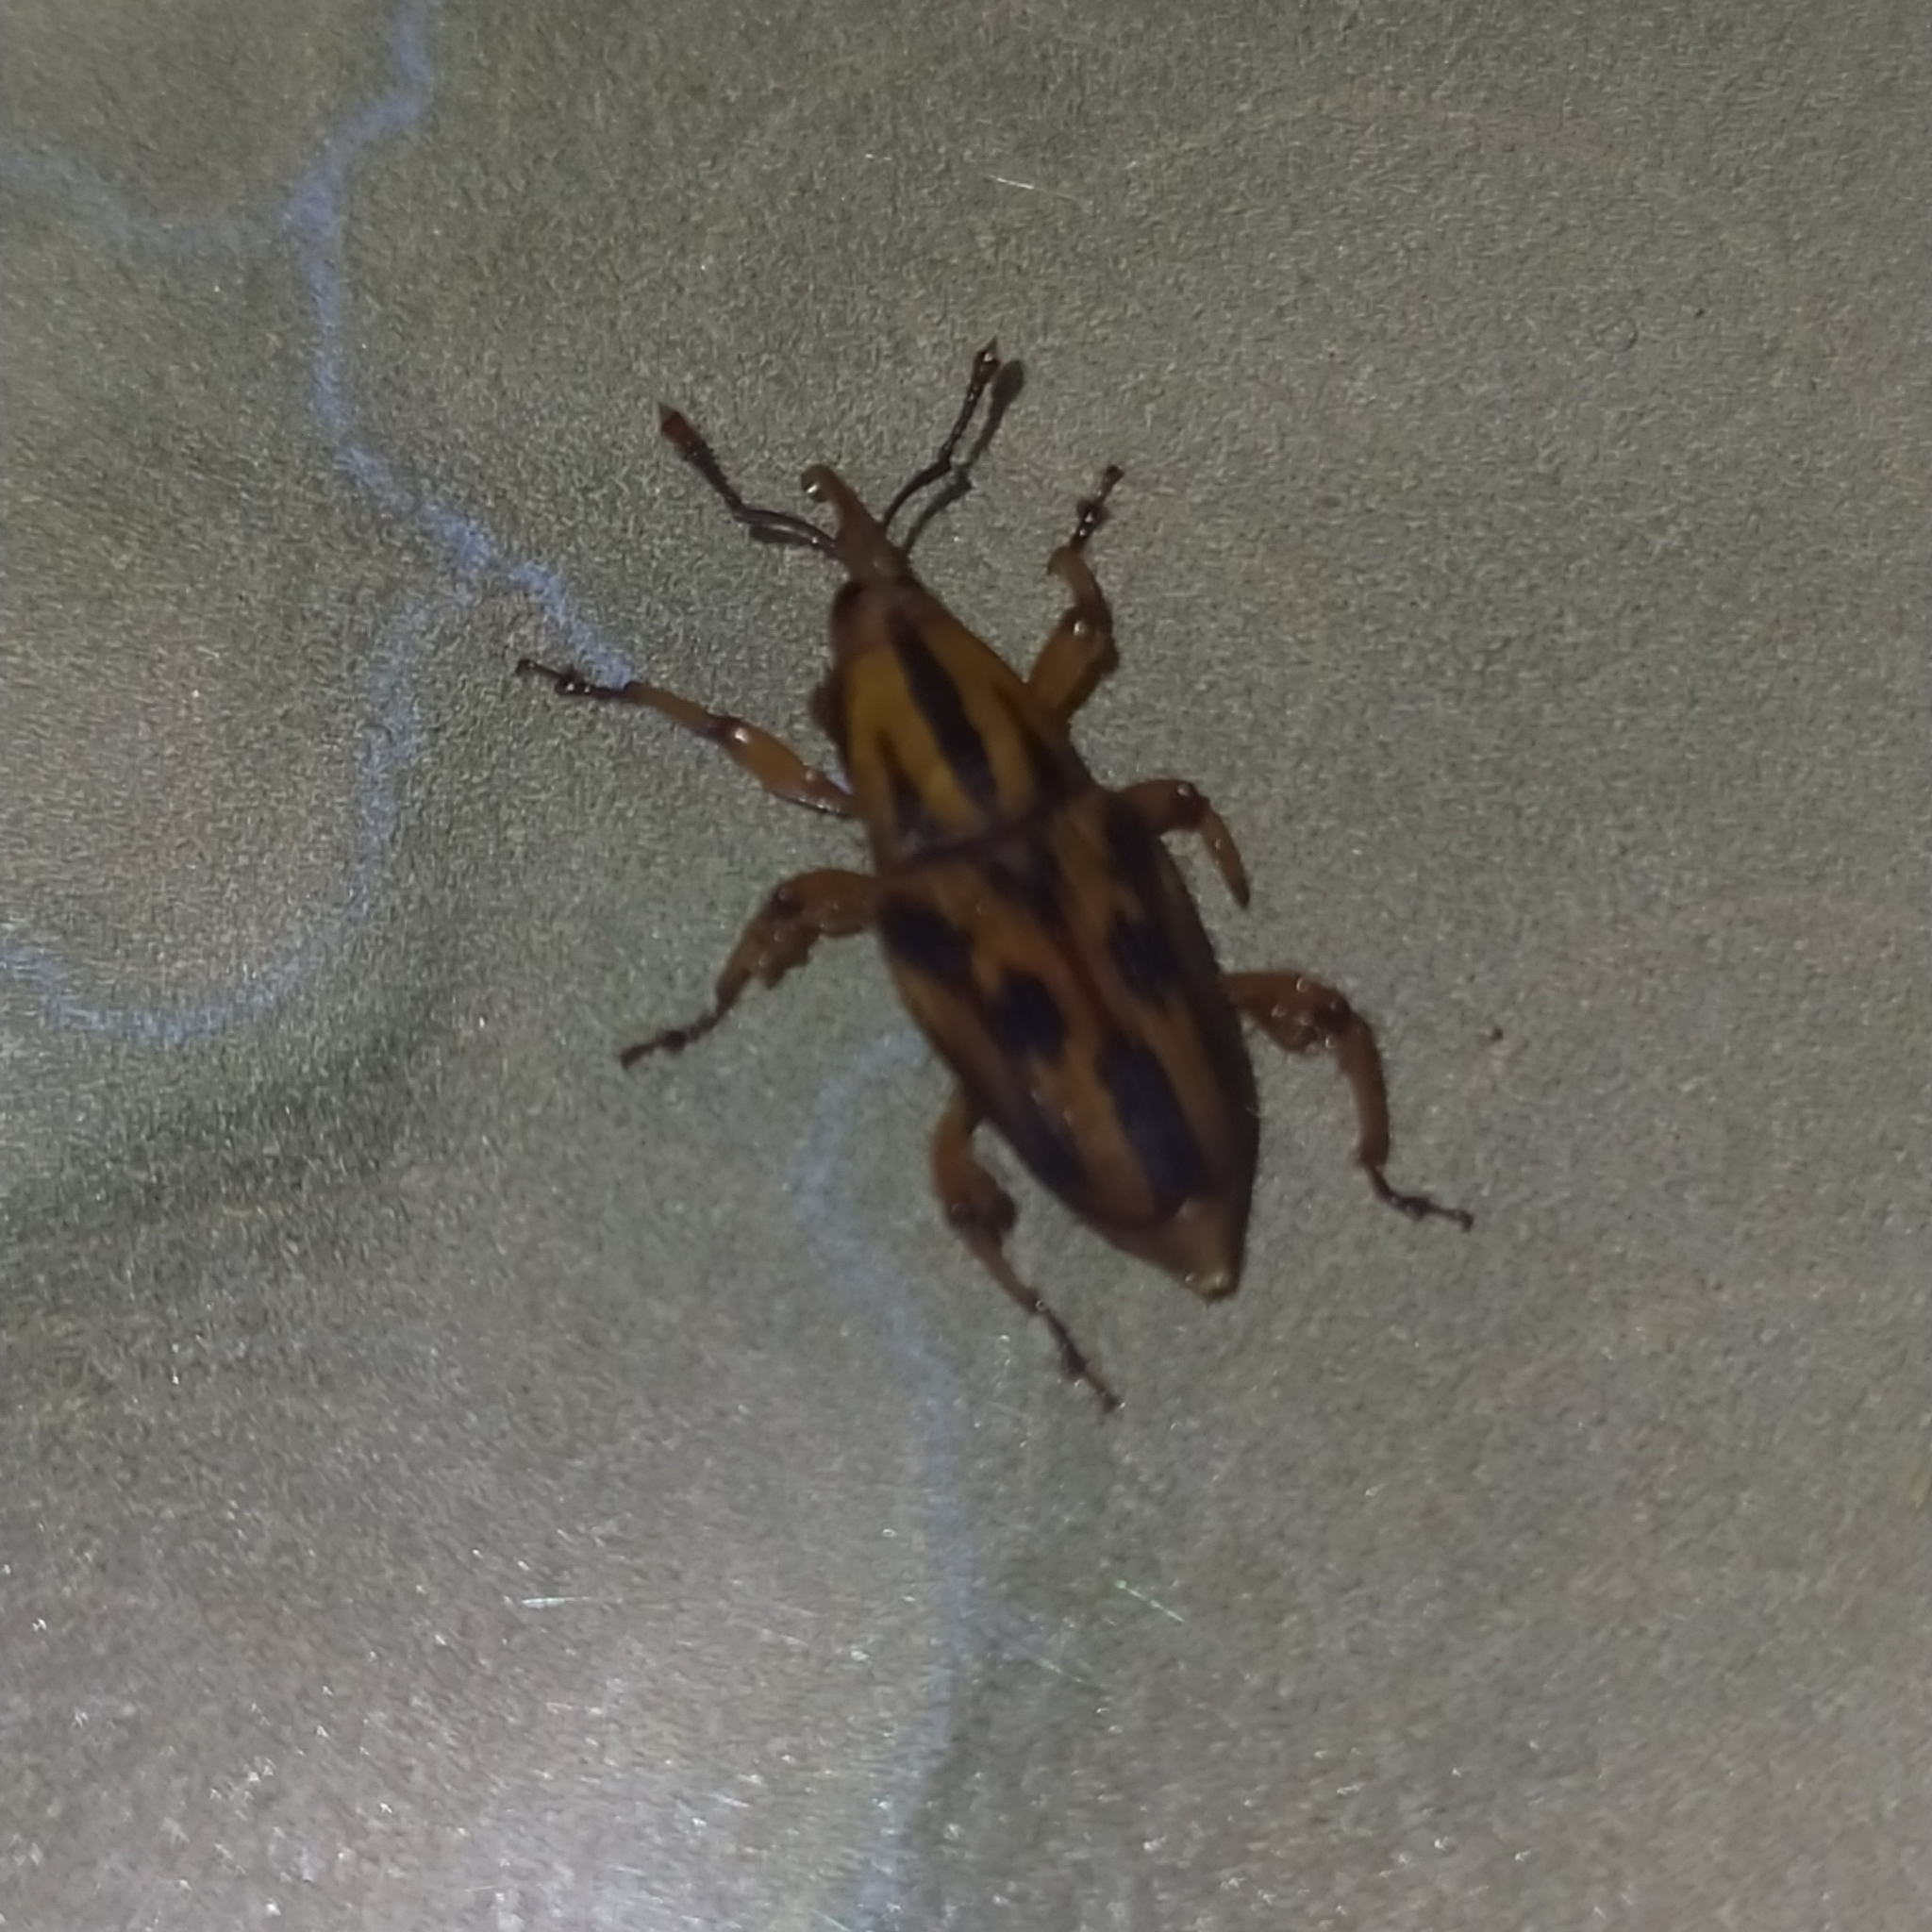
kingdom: Animalia
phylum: Arthropoda
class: Insecta
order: Coleoptera
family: Dryophthoridae
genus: Metamasius
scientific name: Metamasius hemipterus
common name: Weevil
